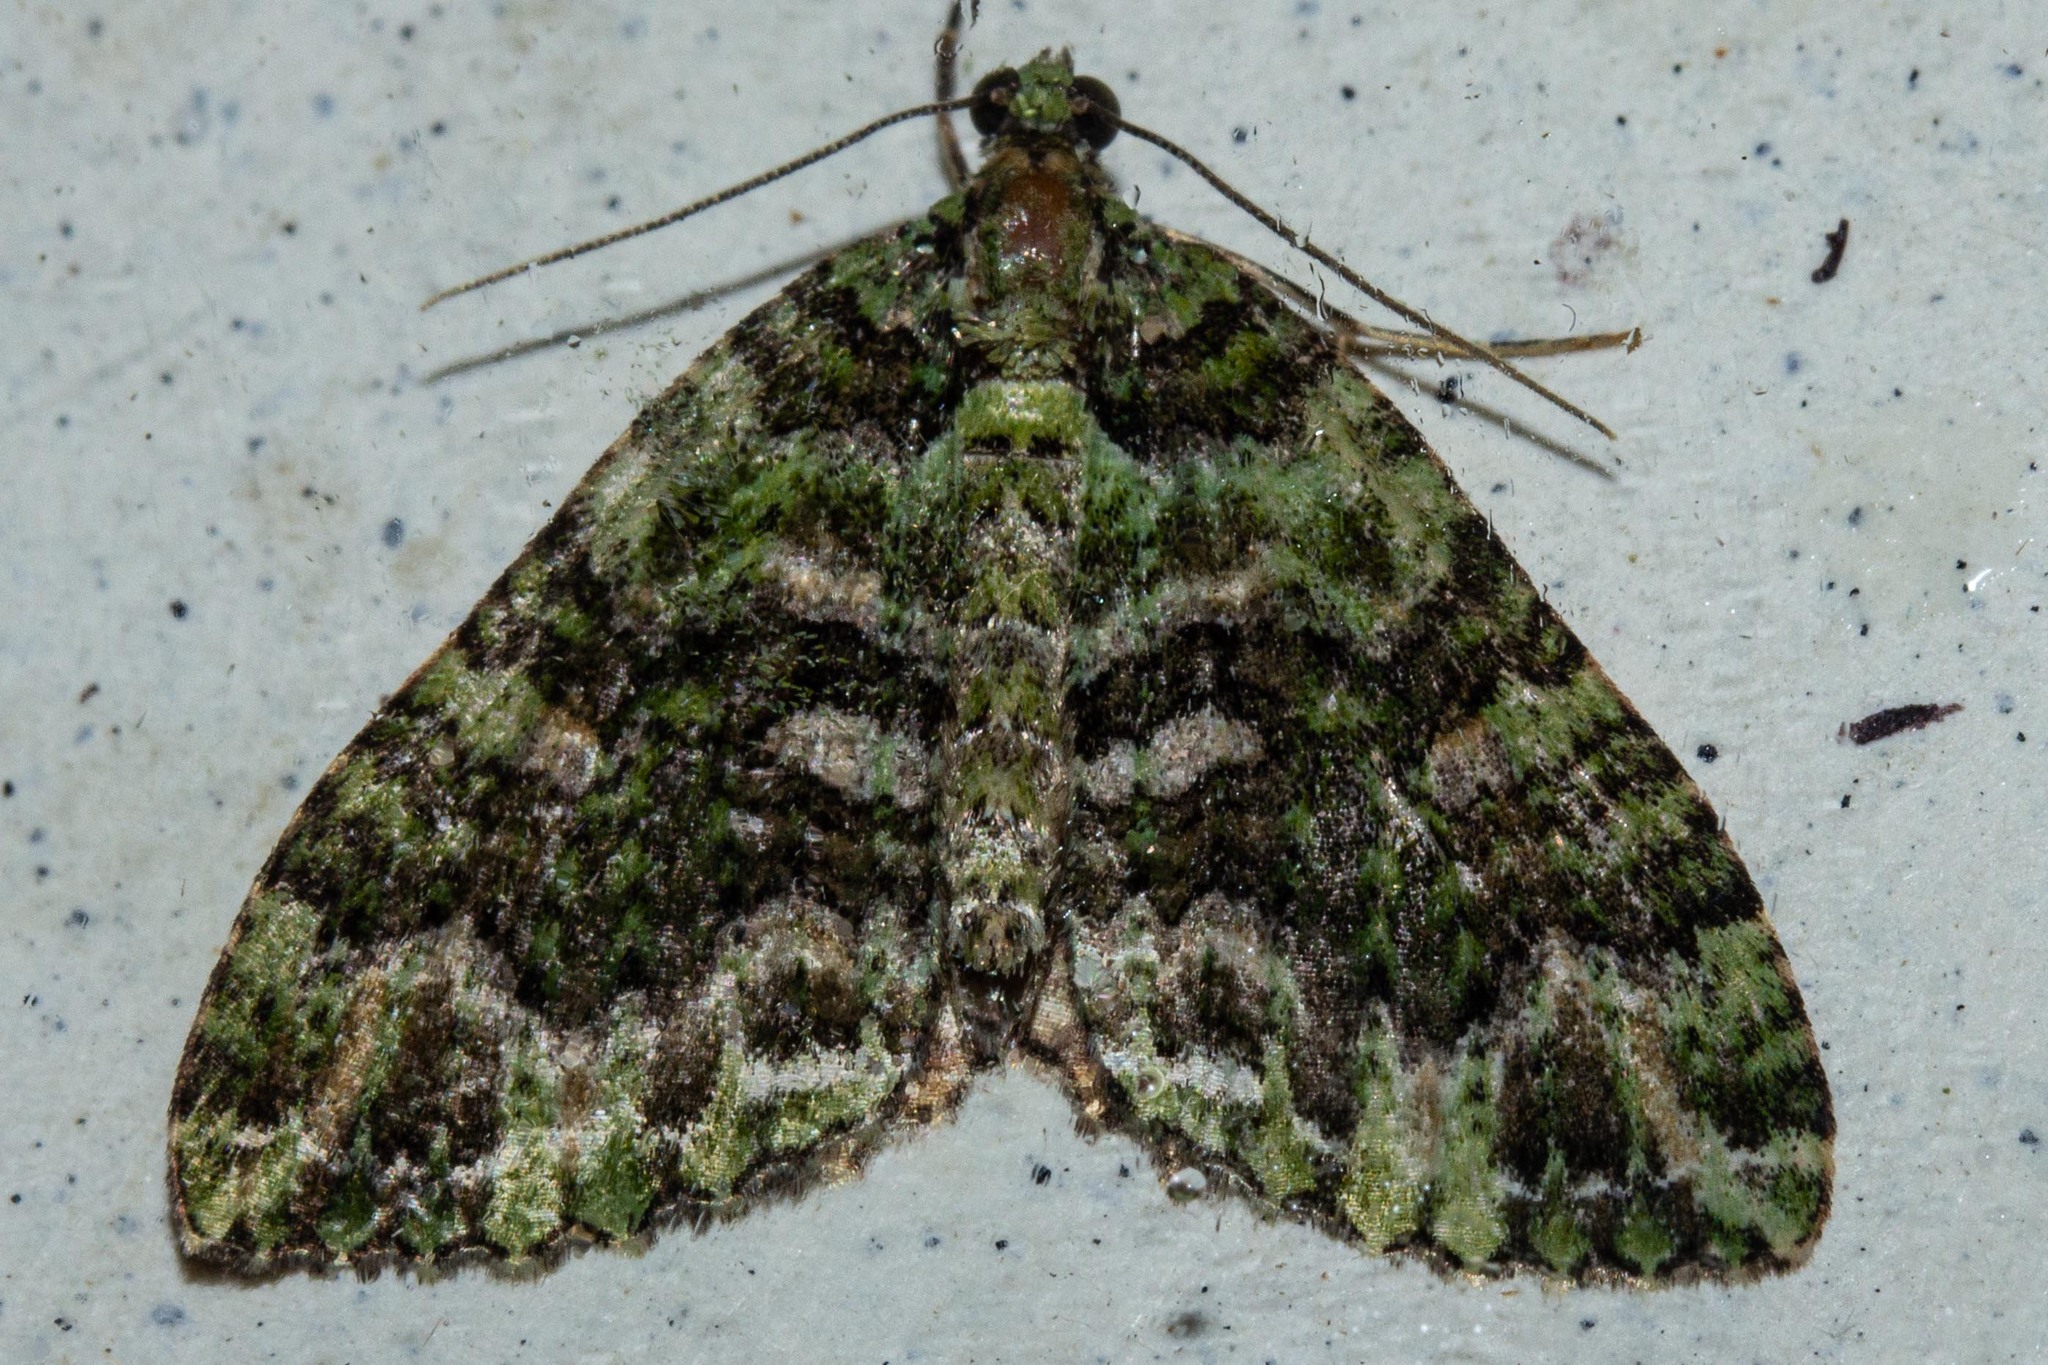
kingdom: Animalia
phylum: Arthropoda
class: Insecta
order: Lepidoptera
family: Geometridae
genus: Austrocidaria
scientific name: Austrocidaria similata
